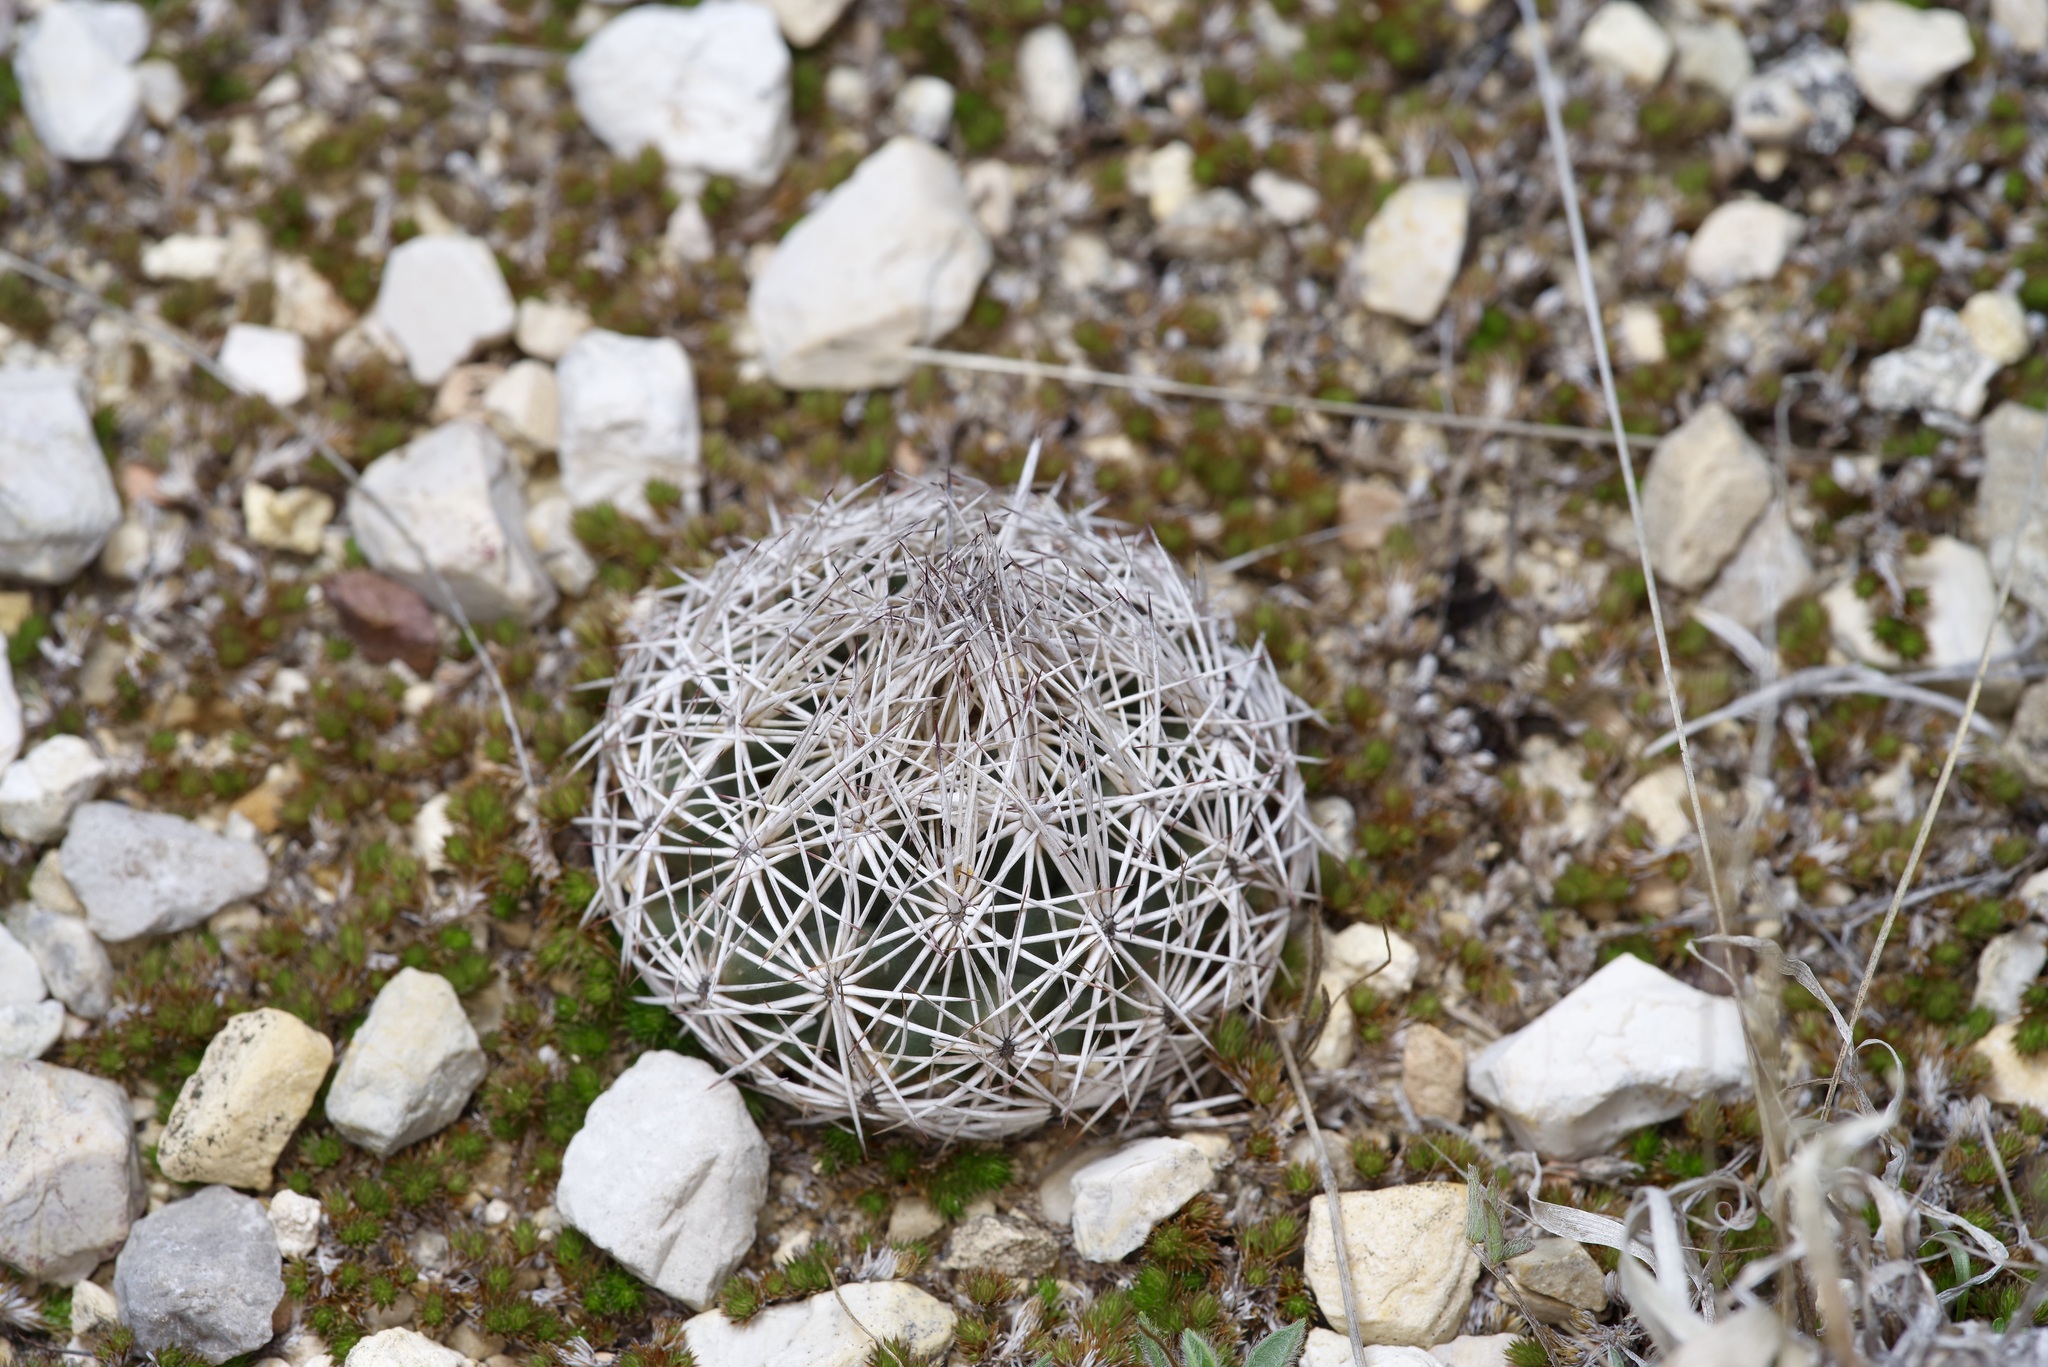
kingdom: Plantae
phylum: Tracheophyta
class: Magnoliopsida
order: Caryophyllales
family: Cactaceae
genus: Coryphantha
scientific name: Coryphantha echinus
